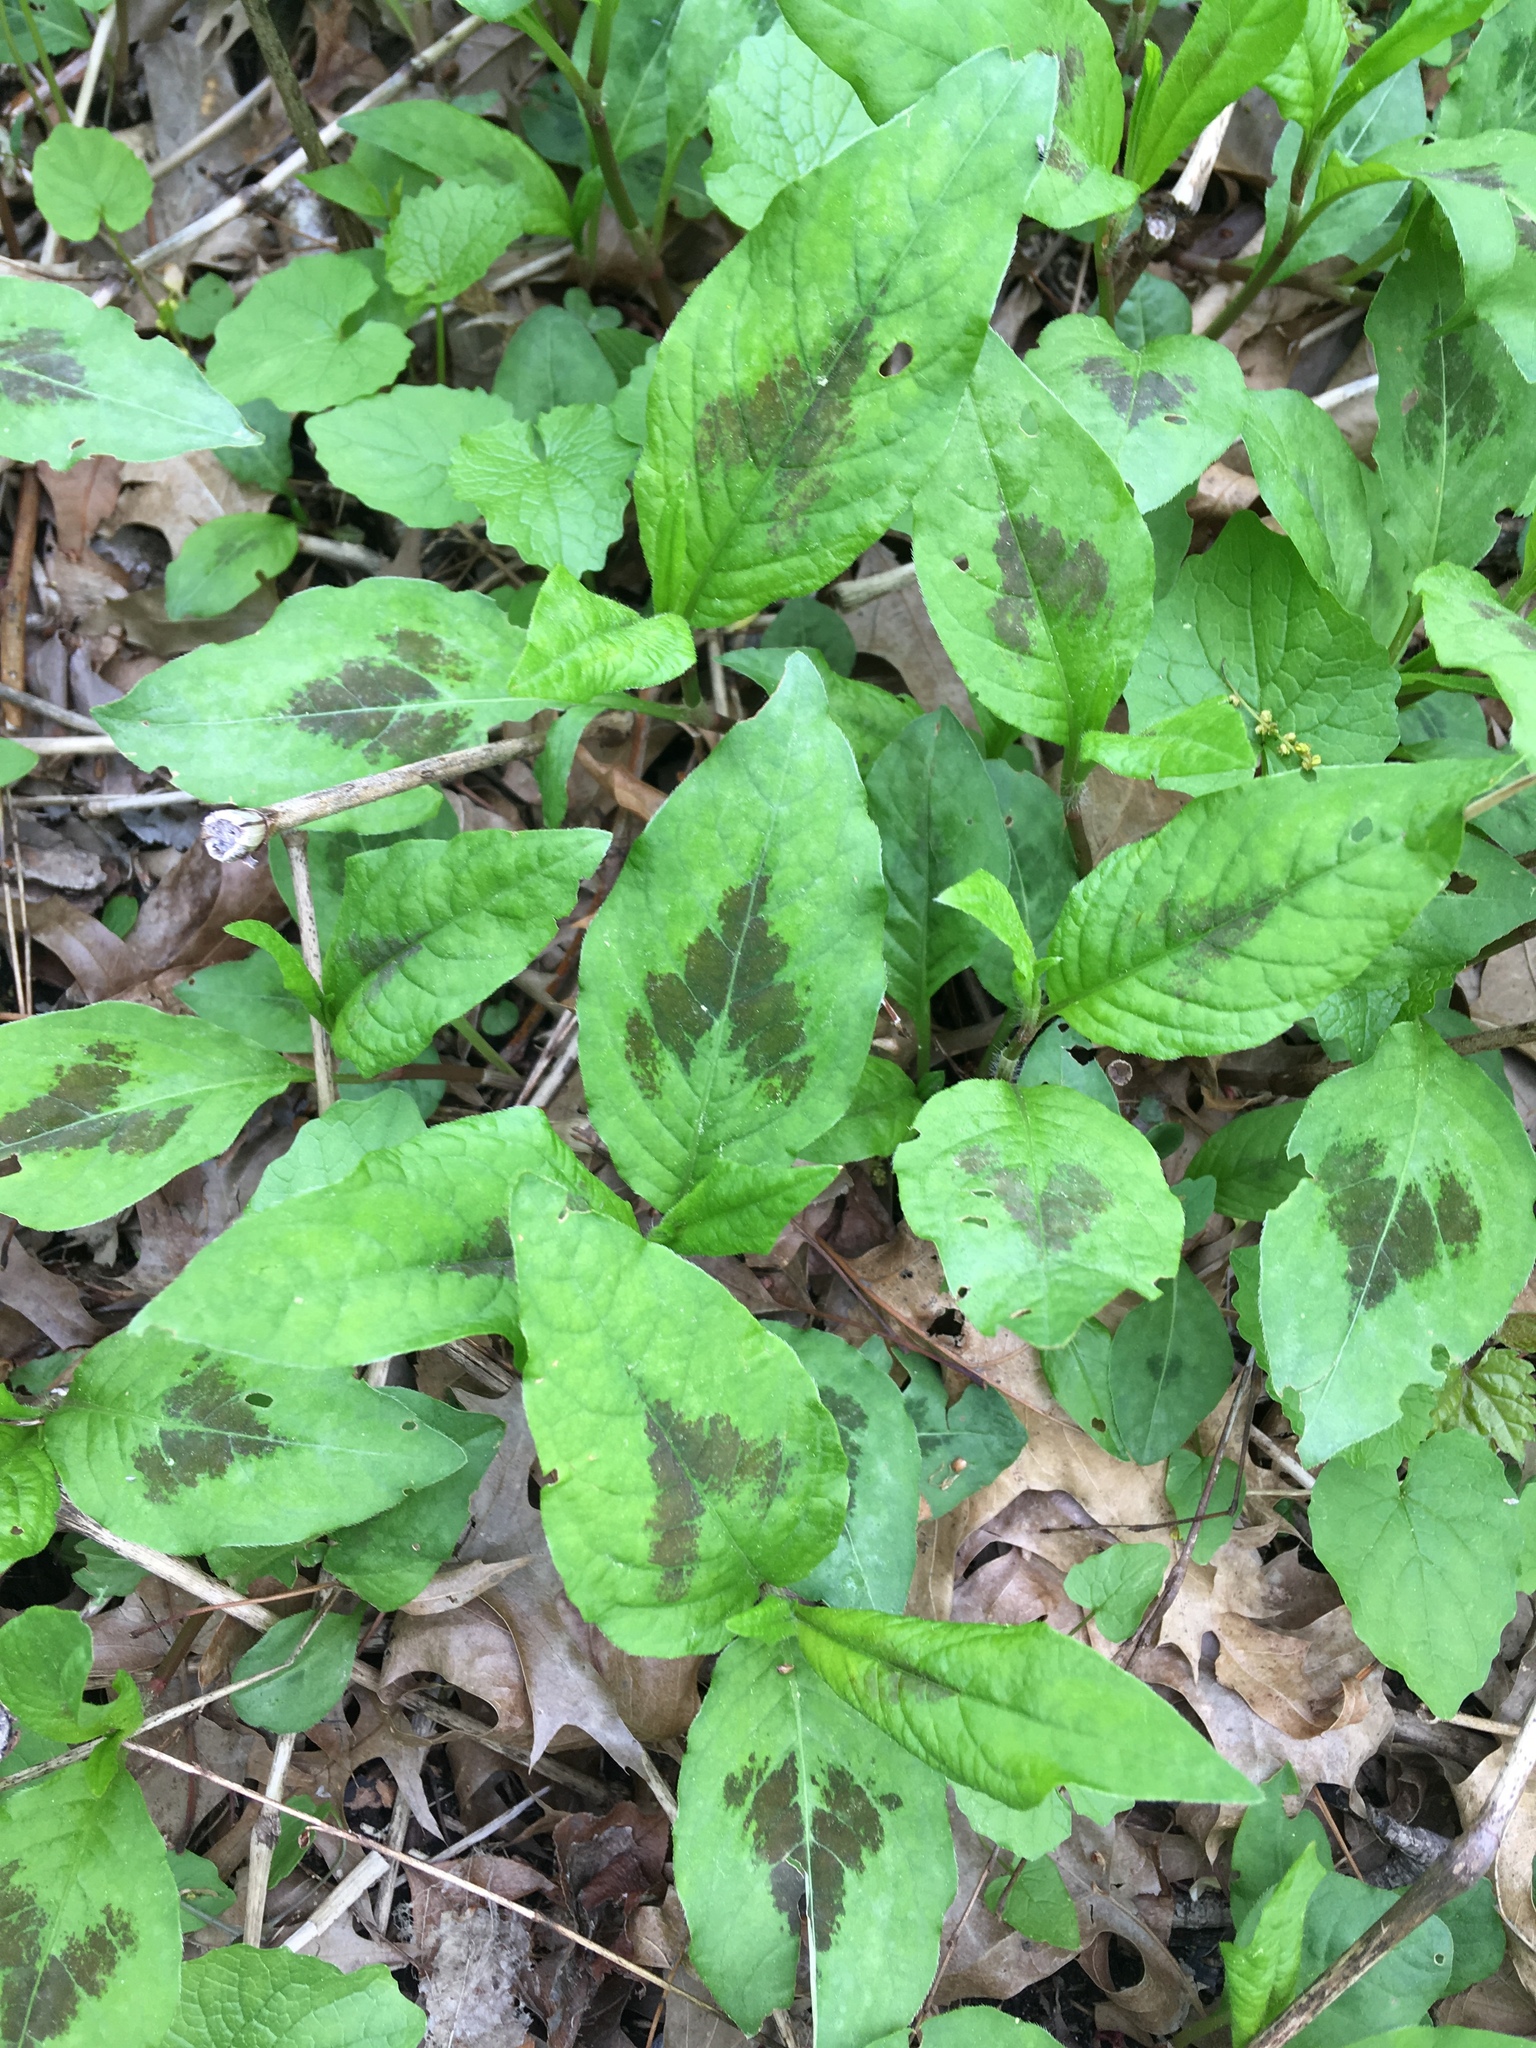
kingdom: Plantae
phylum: Tracheophyta
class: Magnoliopsida
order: Caryophyllales
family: Polygonaceae
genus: Persicaria
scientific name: Persicaria virginiana
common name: Jumpseed
